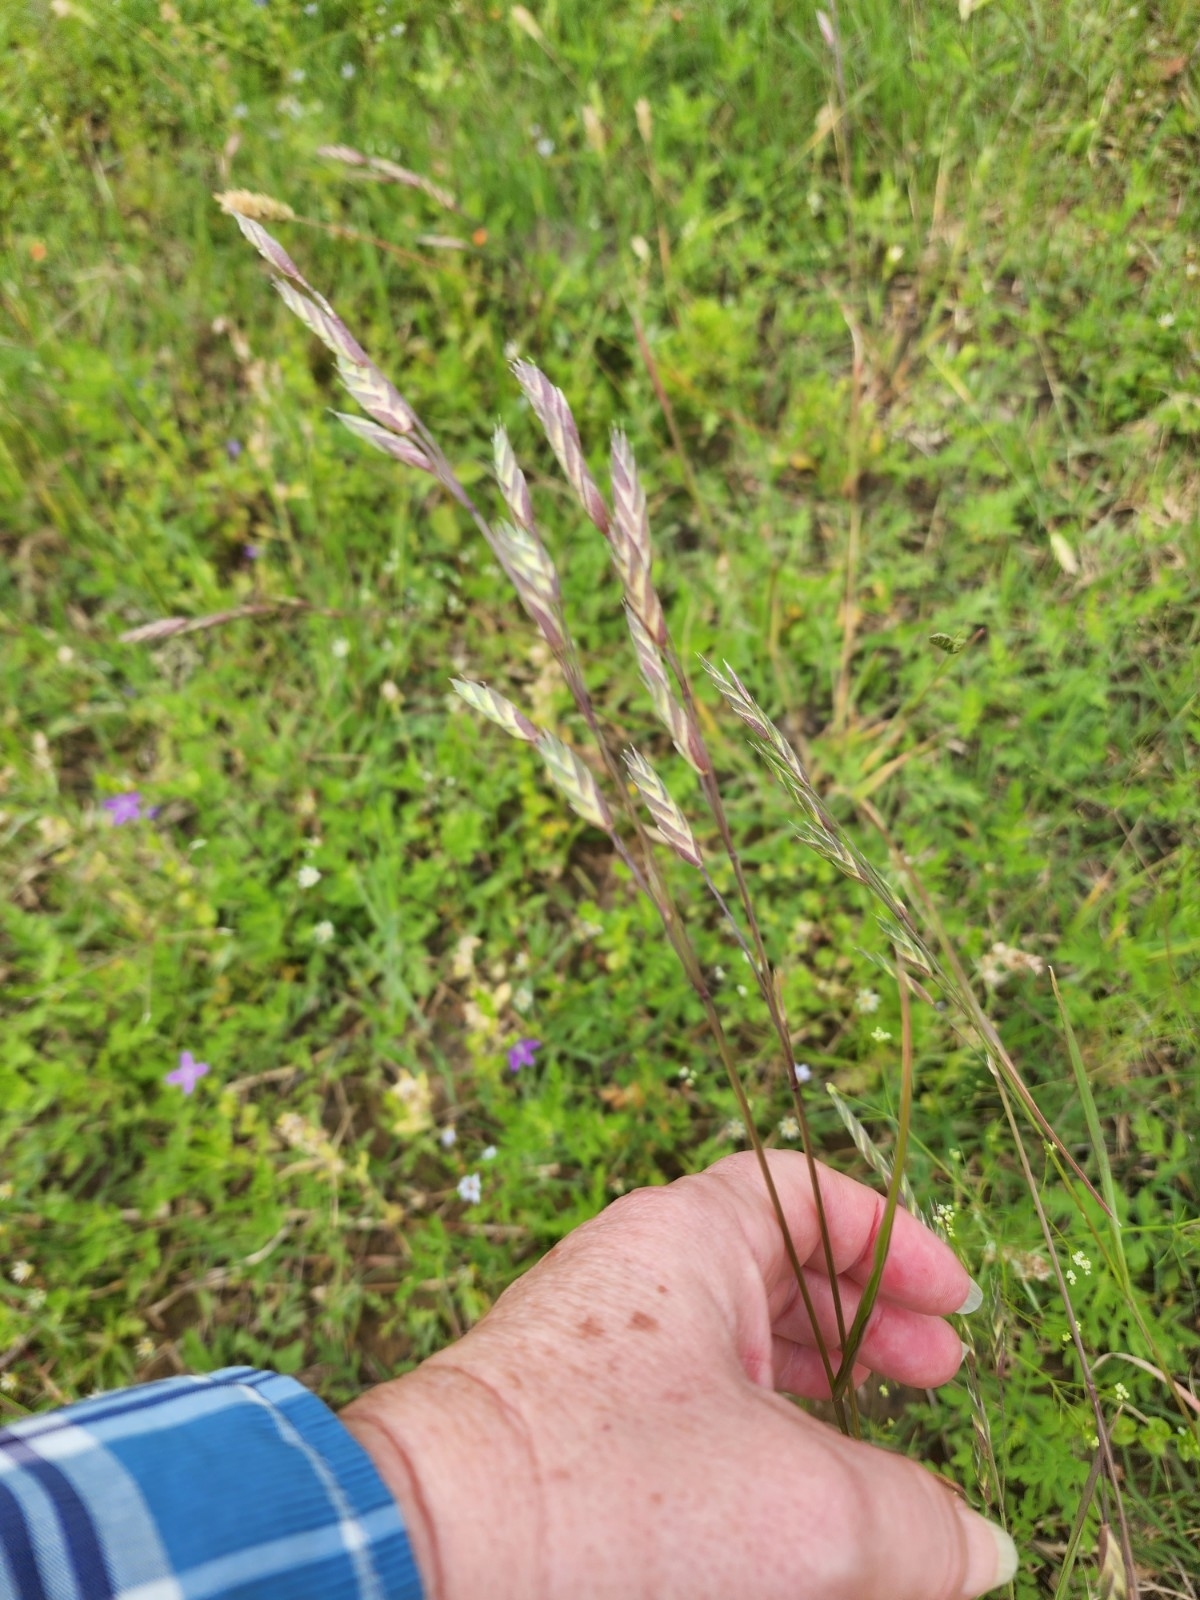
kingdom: Plantae
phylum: Tracheophyta
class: Liliopsida
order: Poales
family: Poaceae
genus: Bromus
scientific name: Bromus catharticus
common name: Rescuegrass
